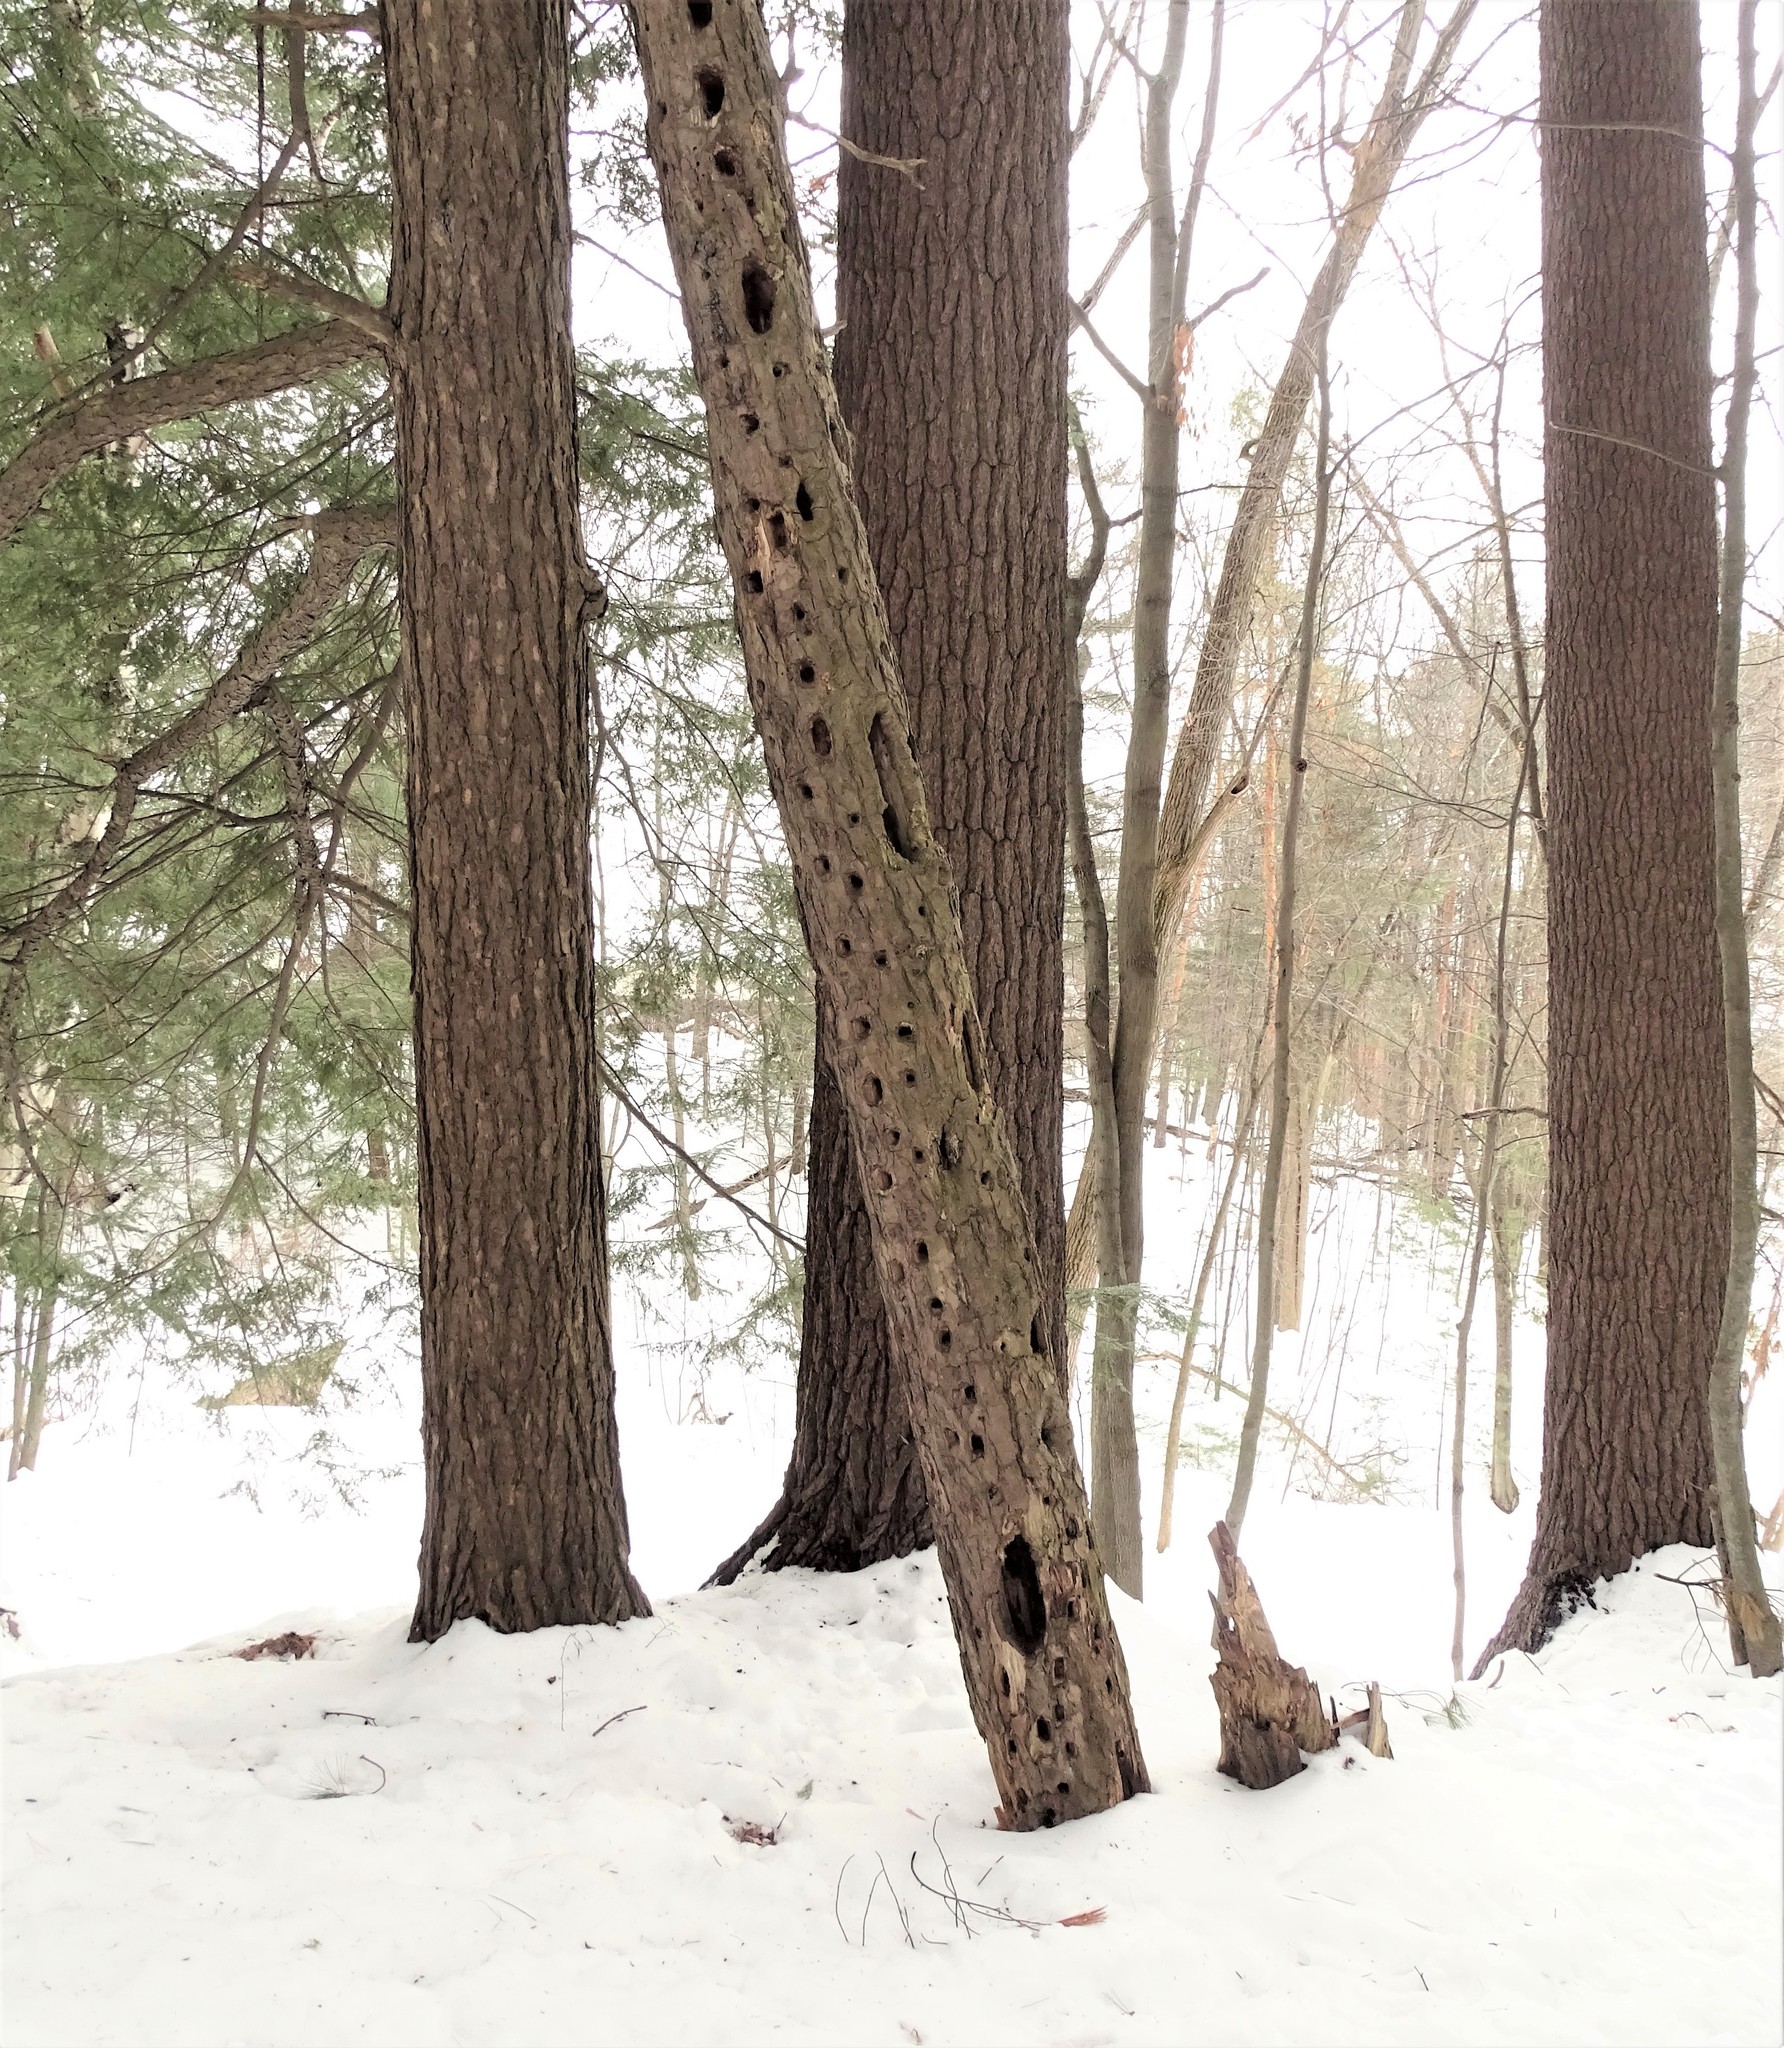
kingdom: Animalia
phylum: Chordata
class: Aves
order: Piciformes
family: Picidae
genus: Dryocopus
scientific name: Dryocopus pileatus
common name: Pileated woodpecker
